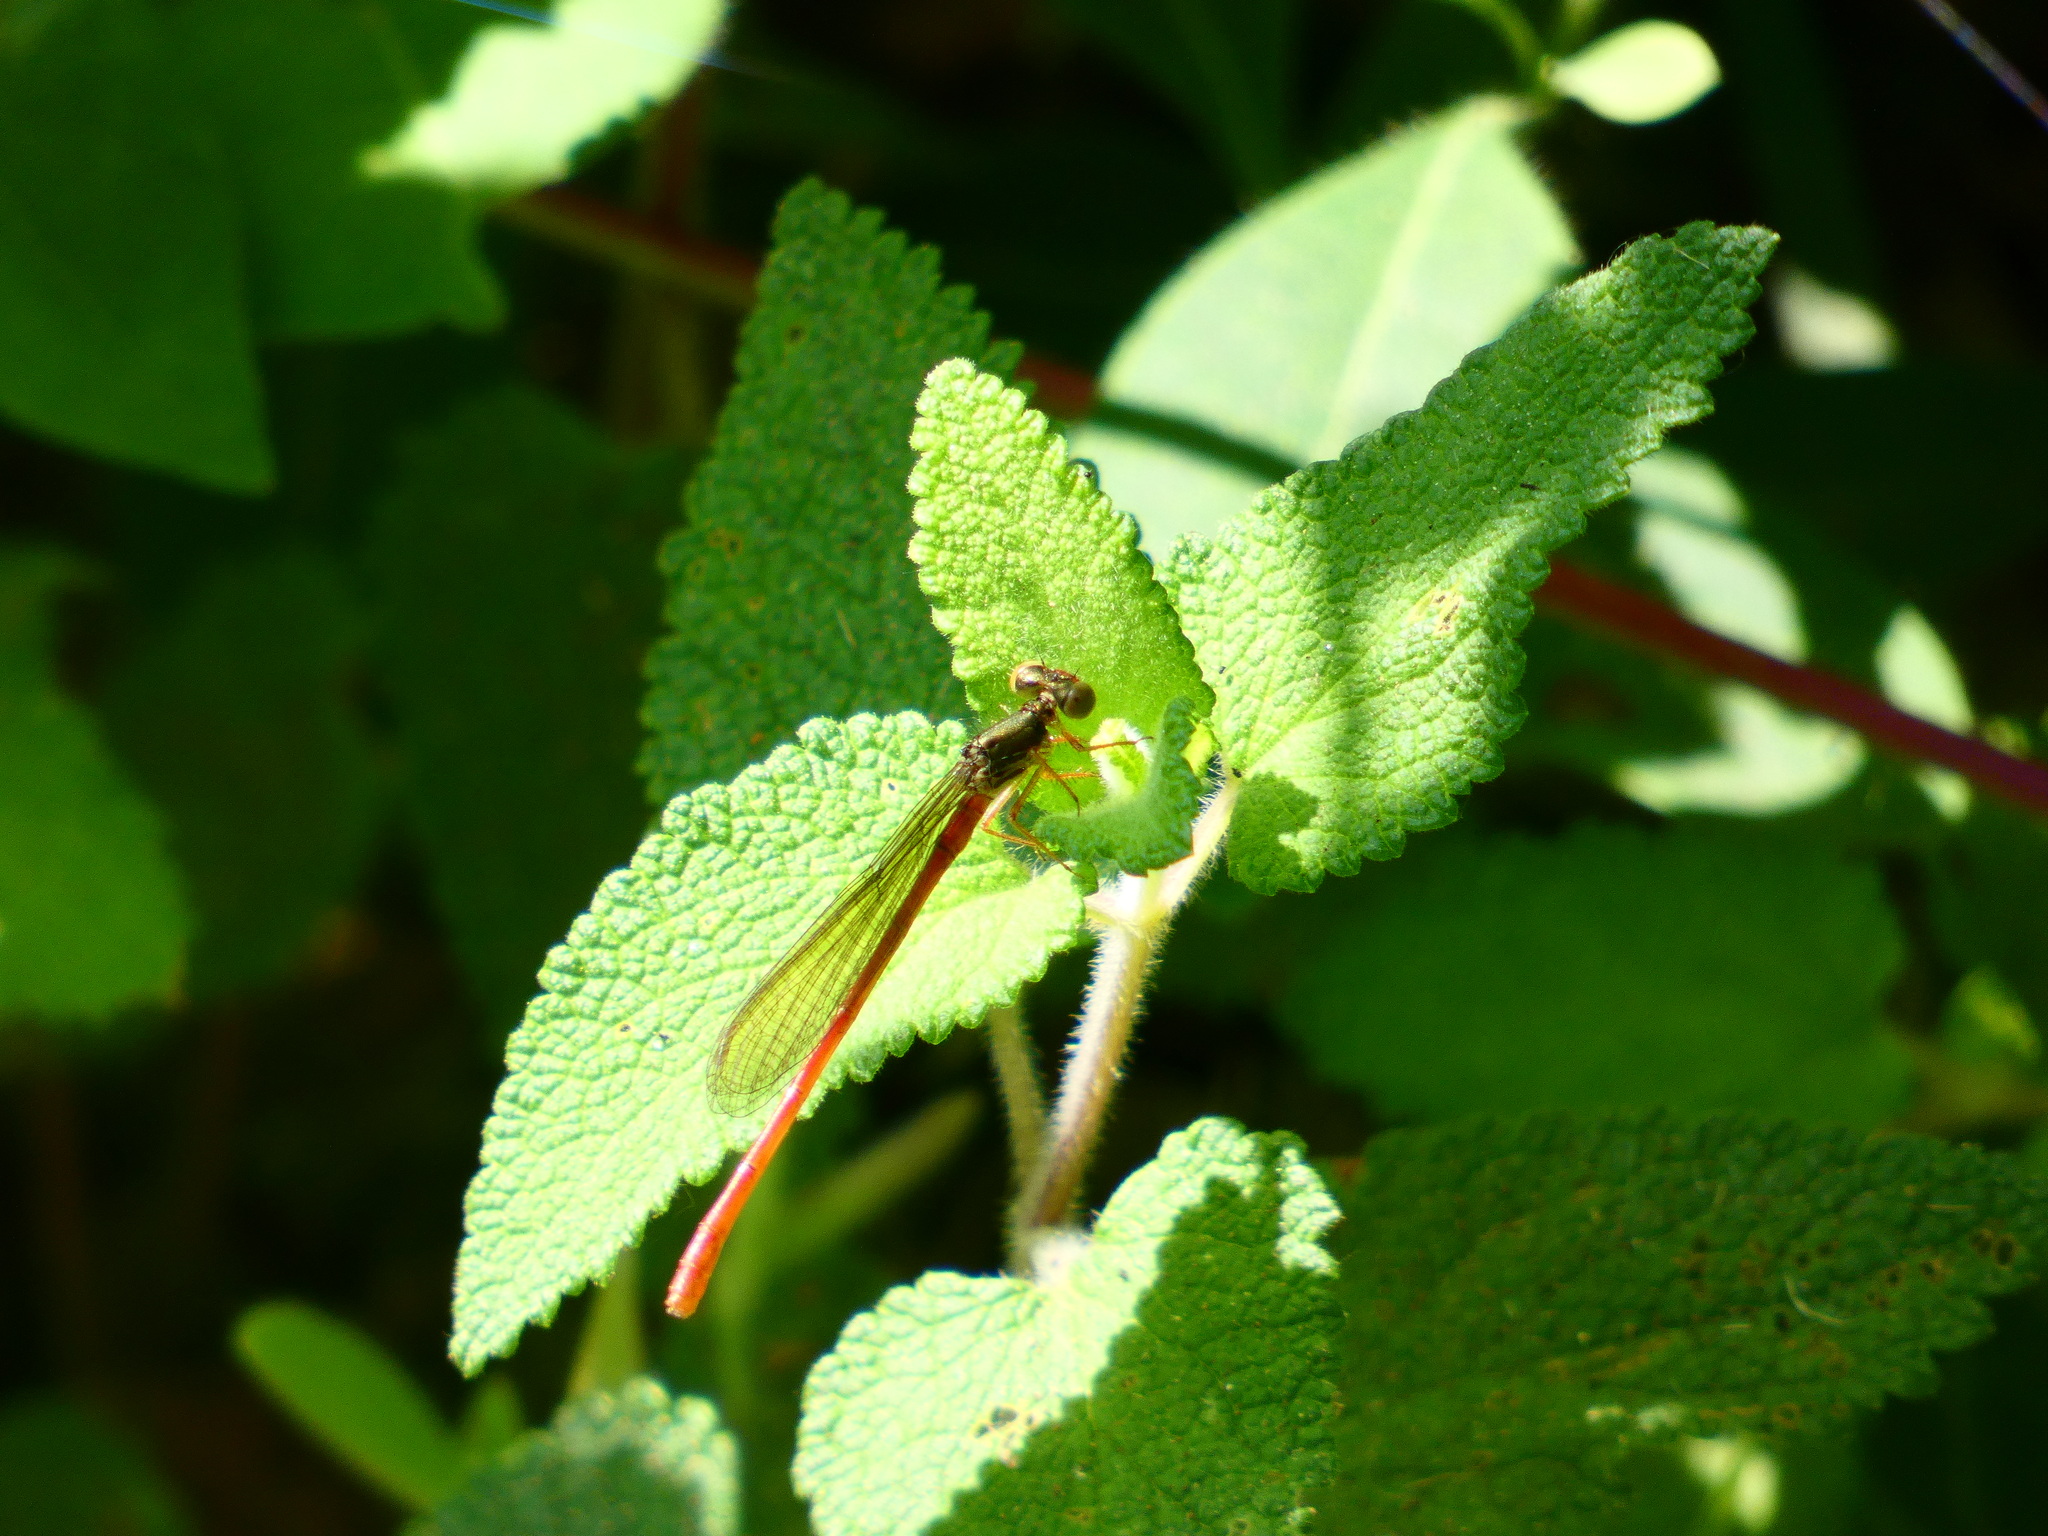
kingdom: Animalia
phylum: Arthropoda
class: Insecta
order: Odonata
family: Coenagrionidae
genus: Ceriagrion
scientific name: Ceriagrion tenellum
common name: Small red damselfly
